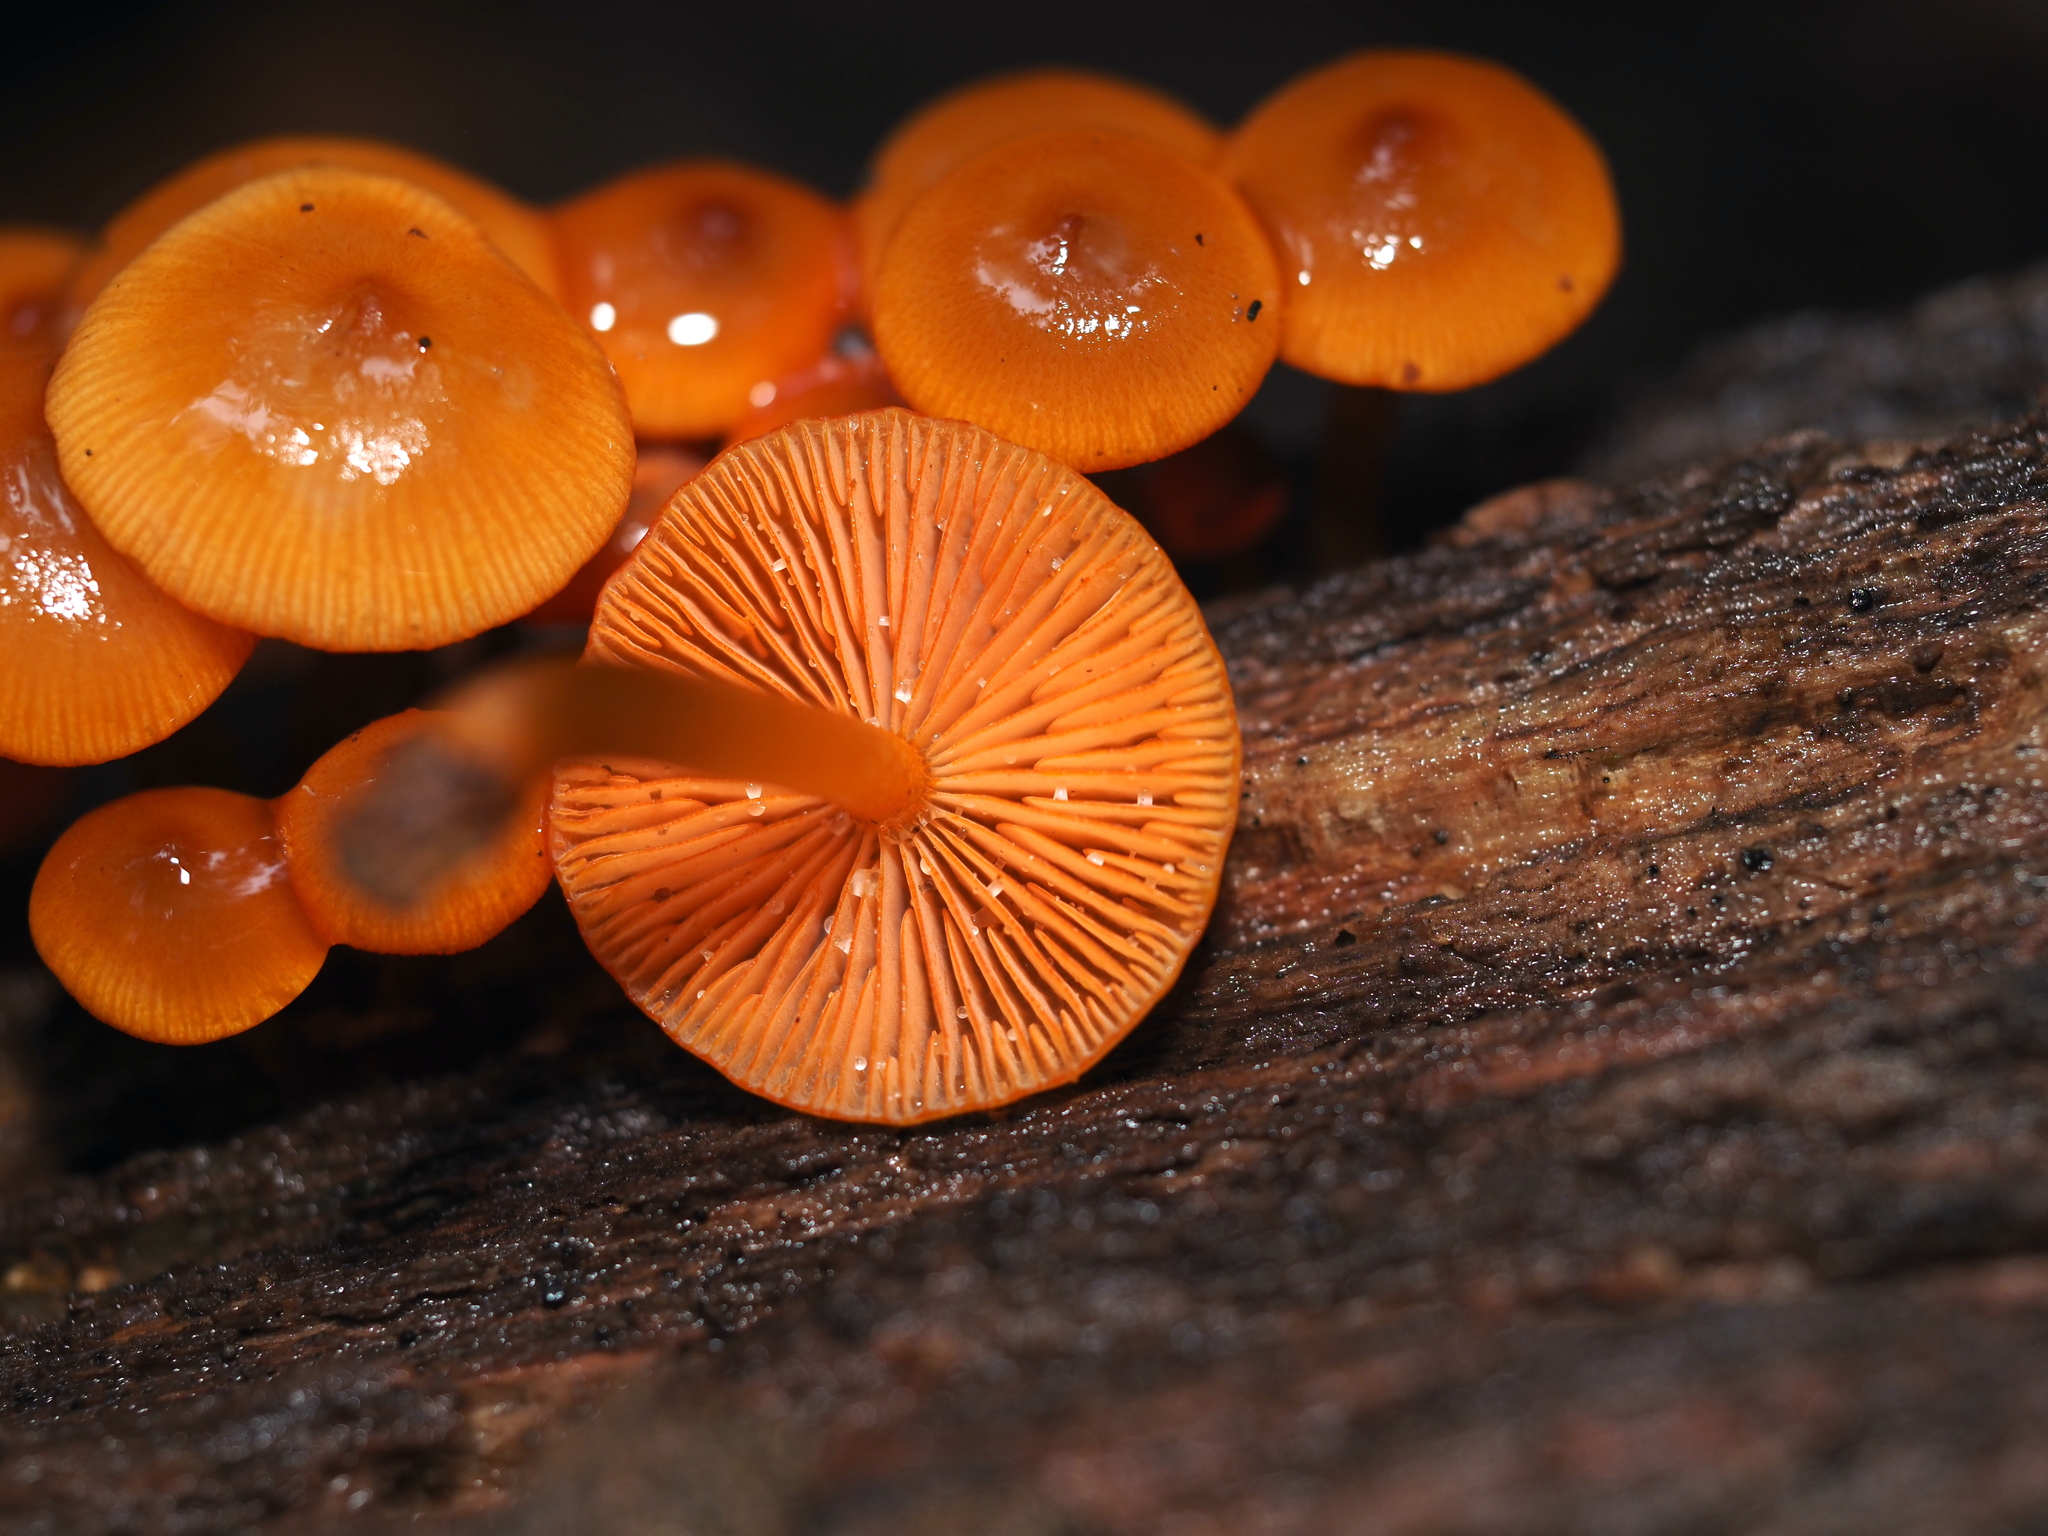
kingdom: Fungi
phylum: Basidiomycota
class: Agaricomycetes
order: Agaricales
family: Mycenaceae
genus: Mycena
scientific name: Mycena leaiana
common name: Orange mycena
